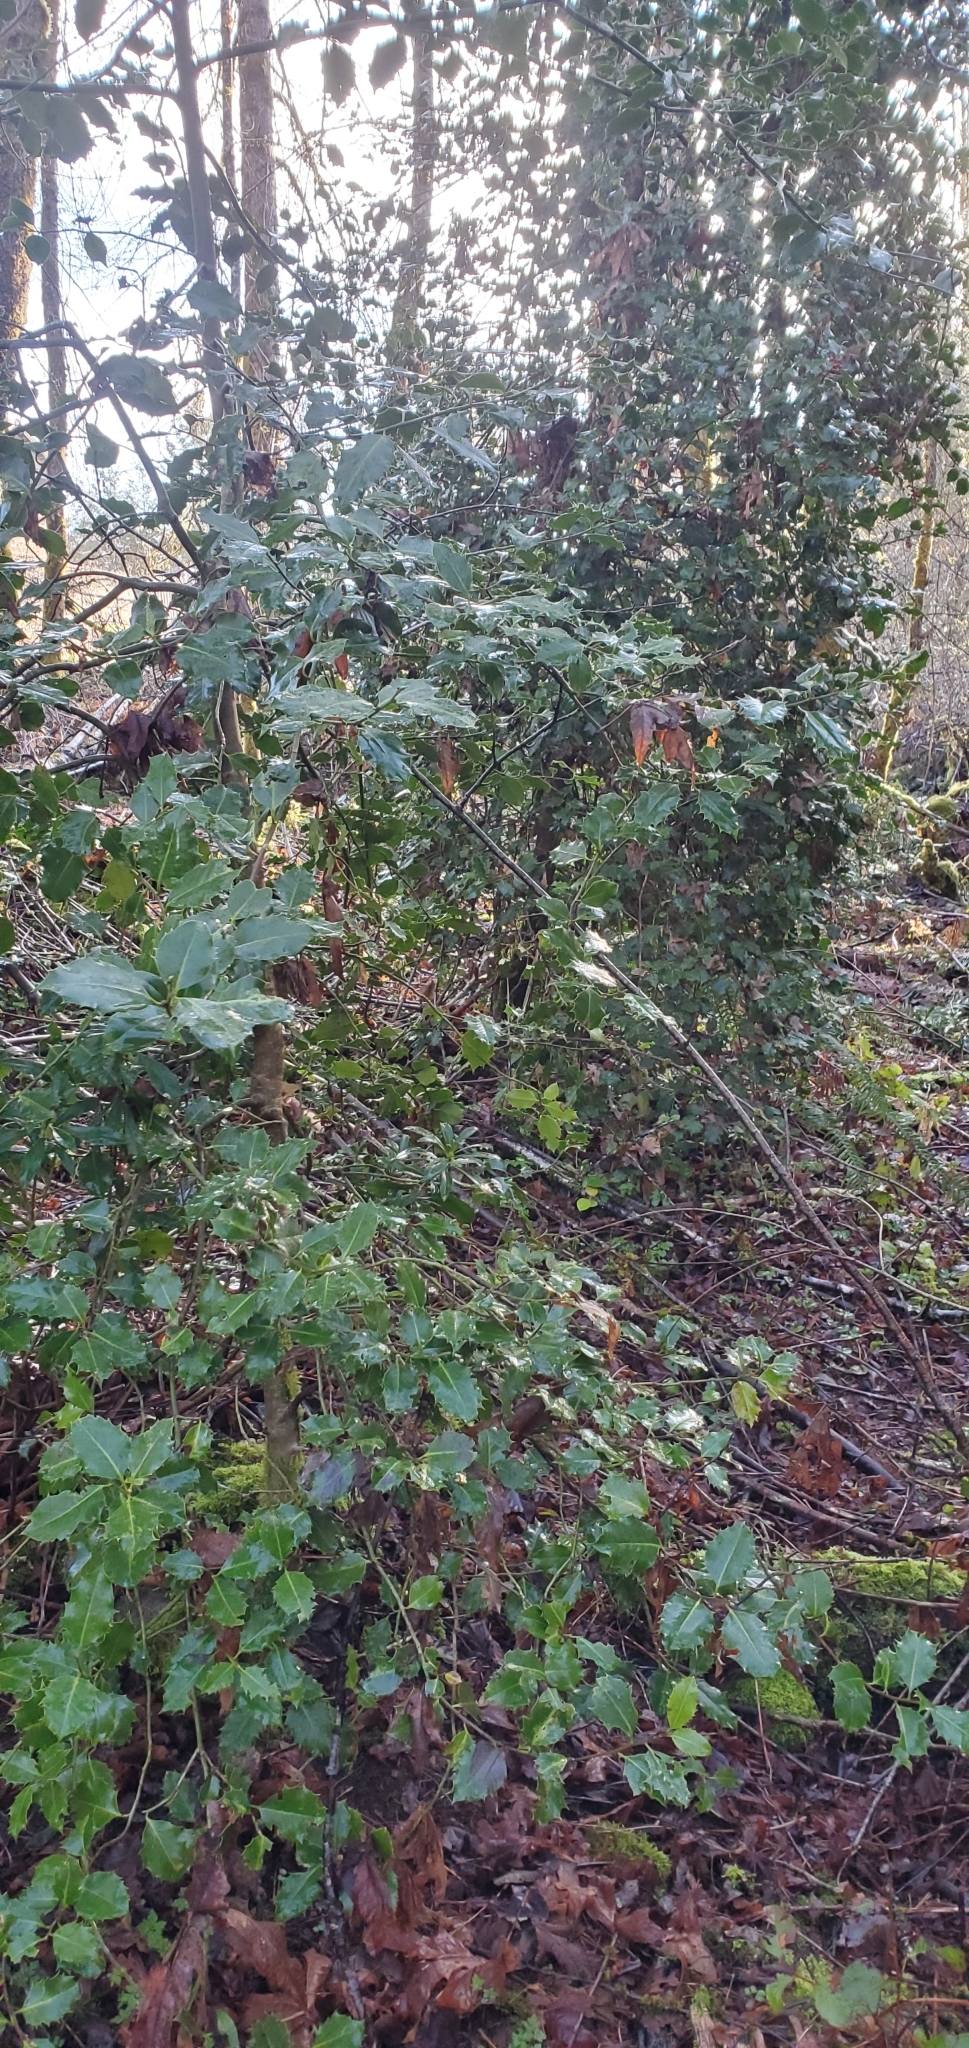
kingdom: Plantae
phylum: Tracheophyta
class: Magnoliopsida
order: Aquifoliales
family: Aquifoliaceae
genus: Ilex
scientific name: Ilex aquifolium
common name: English holly
